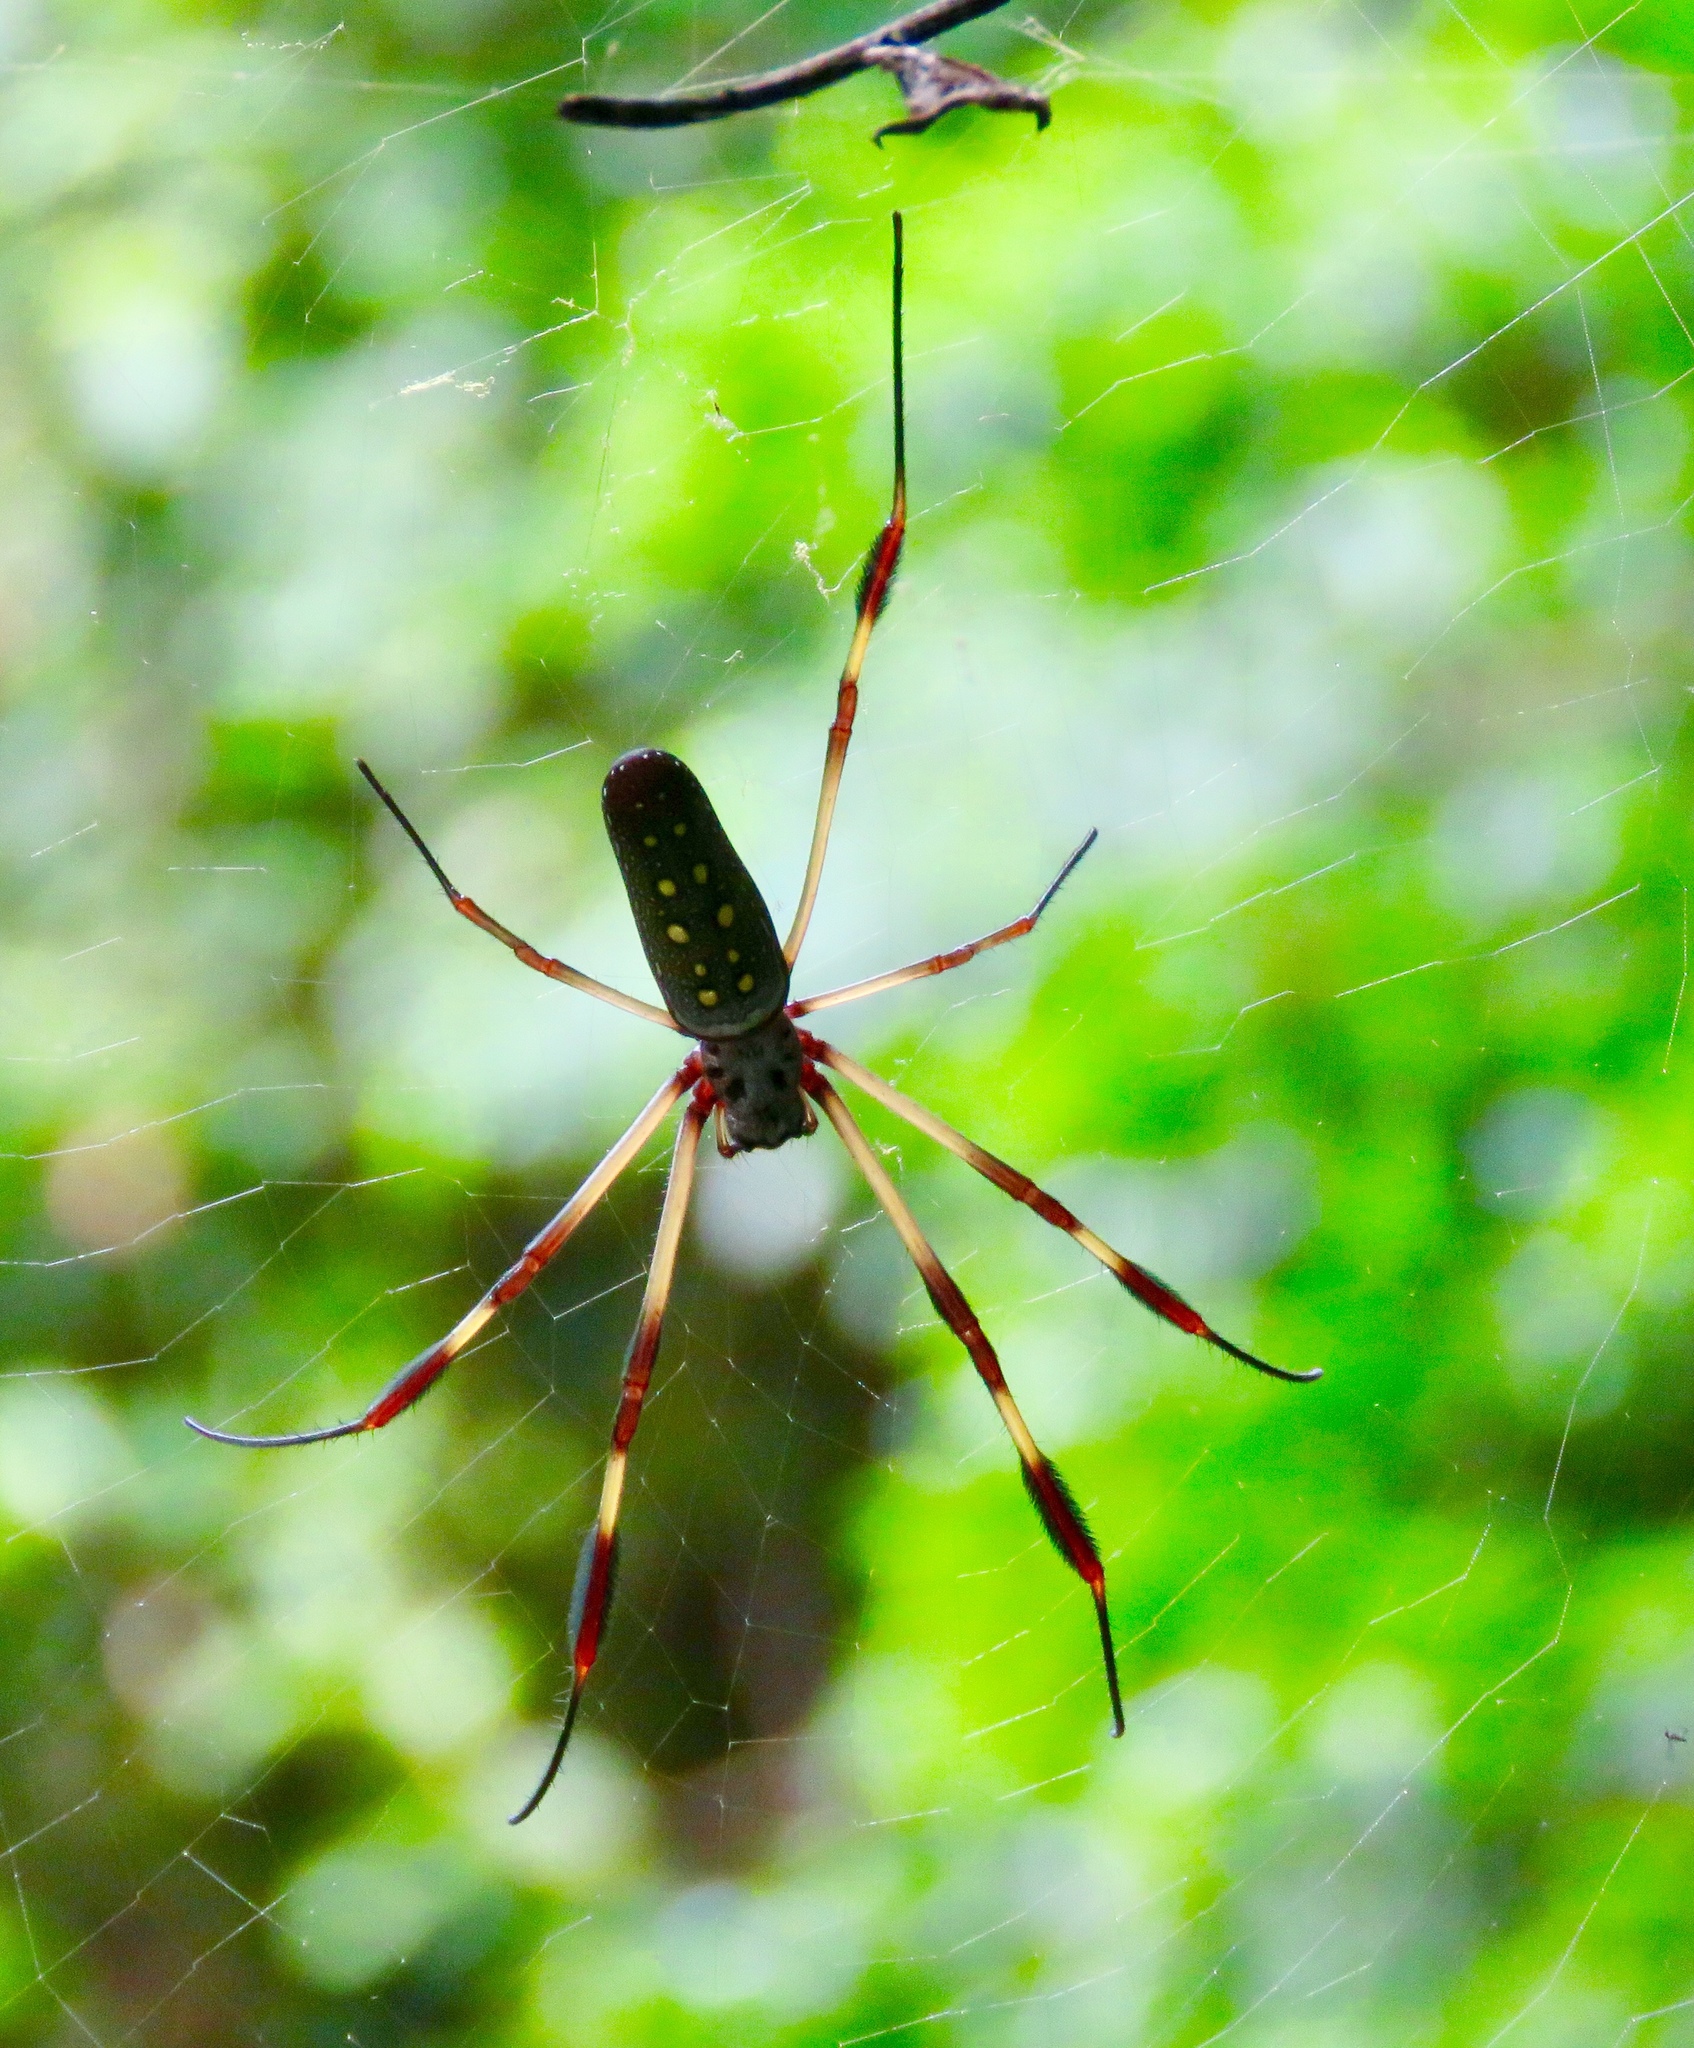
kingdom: Animalia
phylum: Arthropoda
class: Arachnida
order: Araneae
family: Araneidae
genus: Trichonephila
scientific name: Trichonephila clavipes
